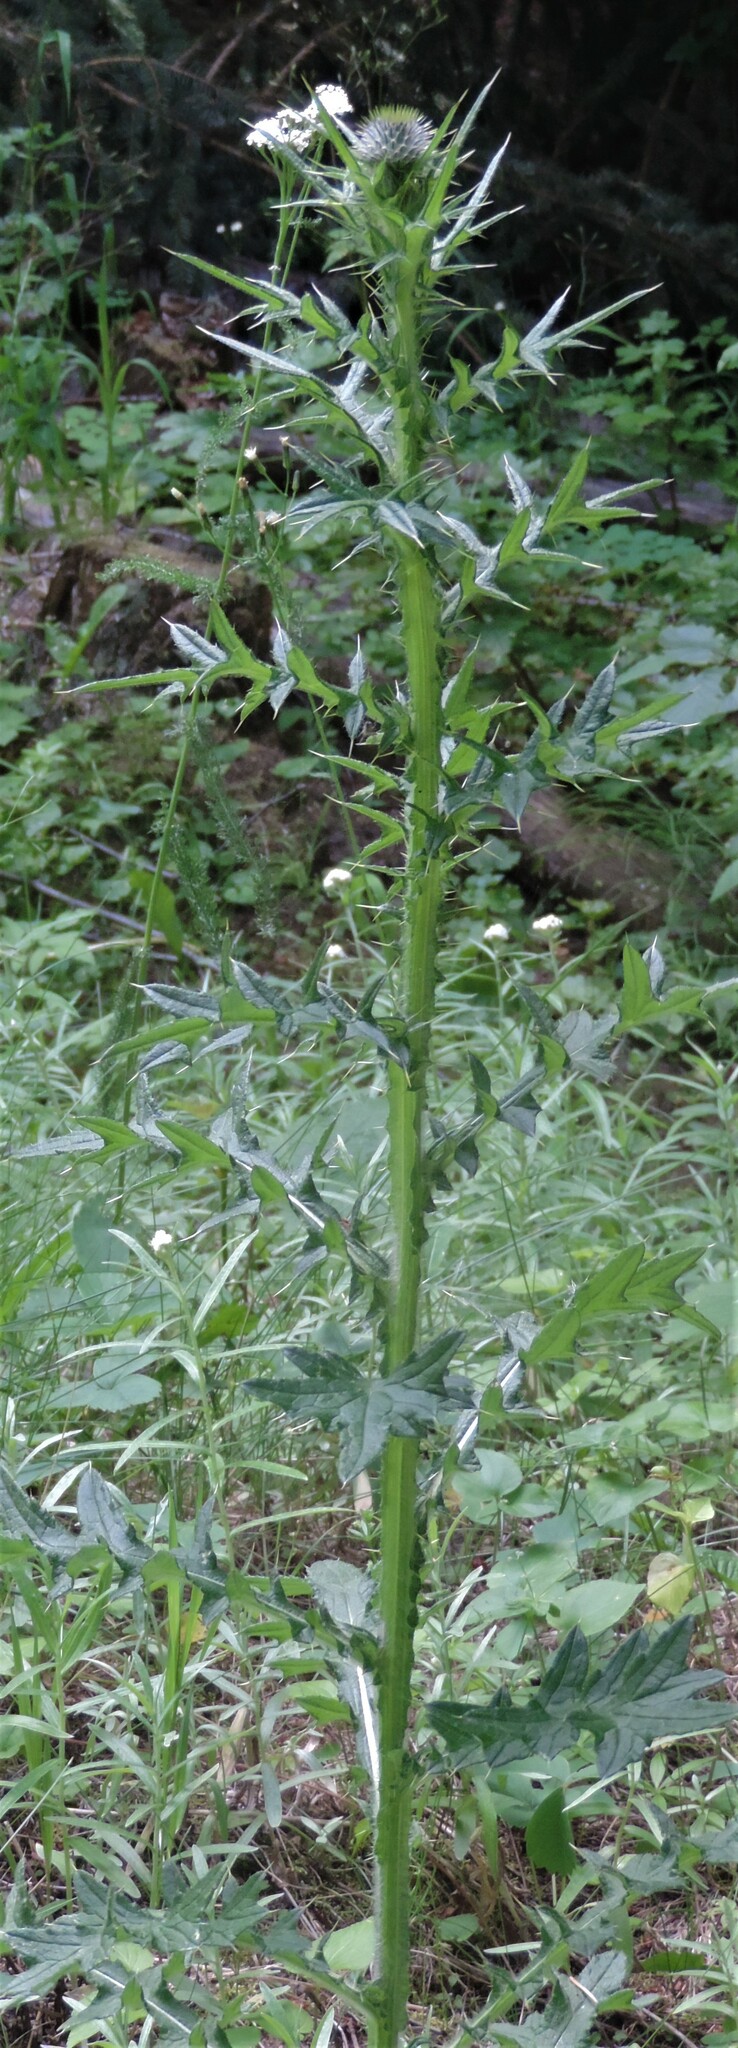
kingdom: Plantae
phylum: Tracheophyta
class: Magnoliopsida
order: Asterales
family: Asteraceae
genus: Cirsium
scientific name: Cirsium vulgare
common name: Bull thistle
